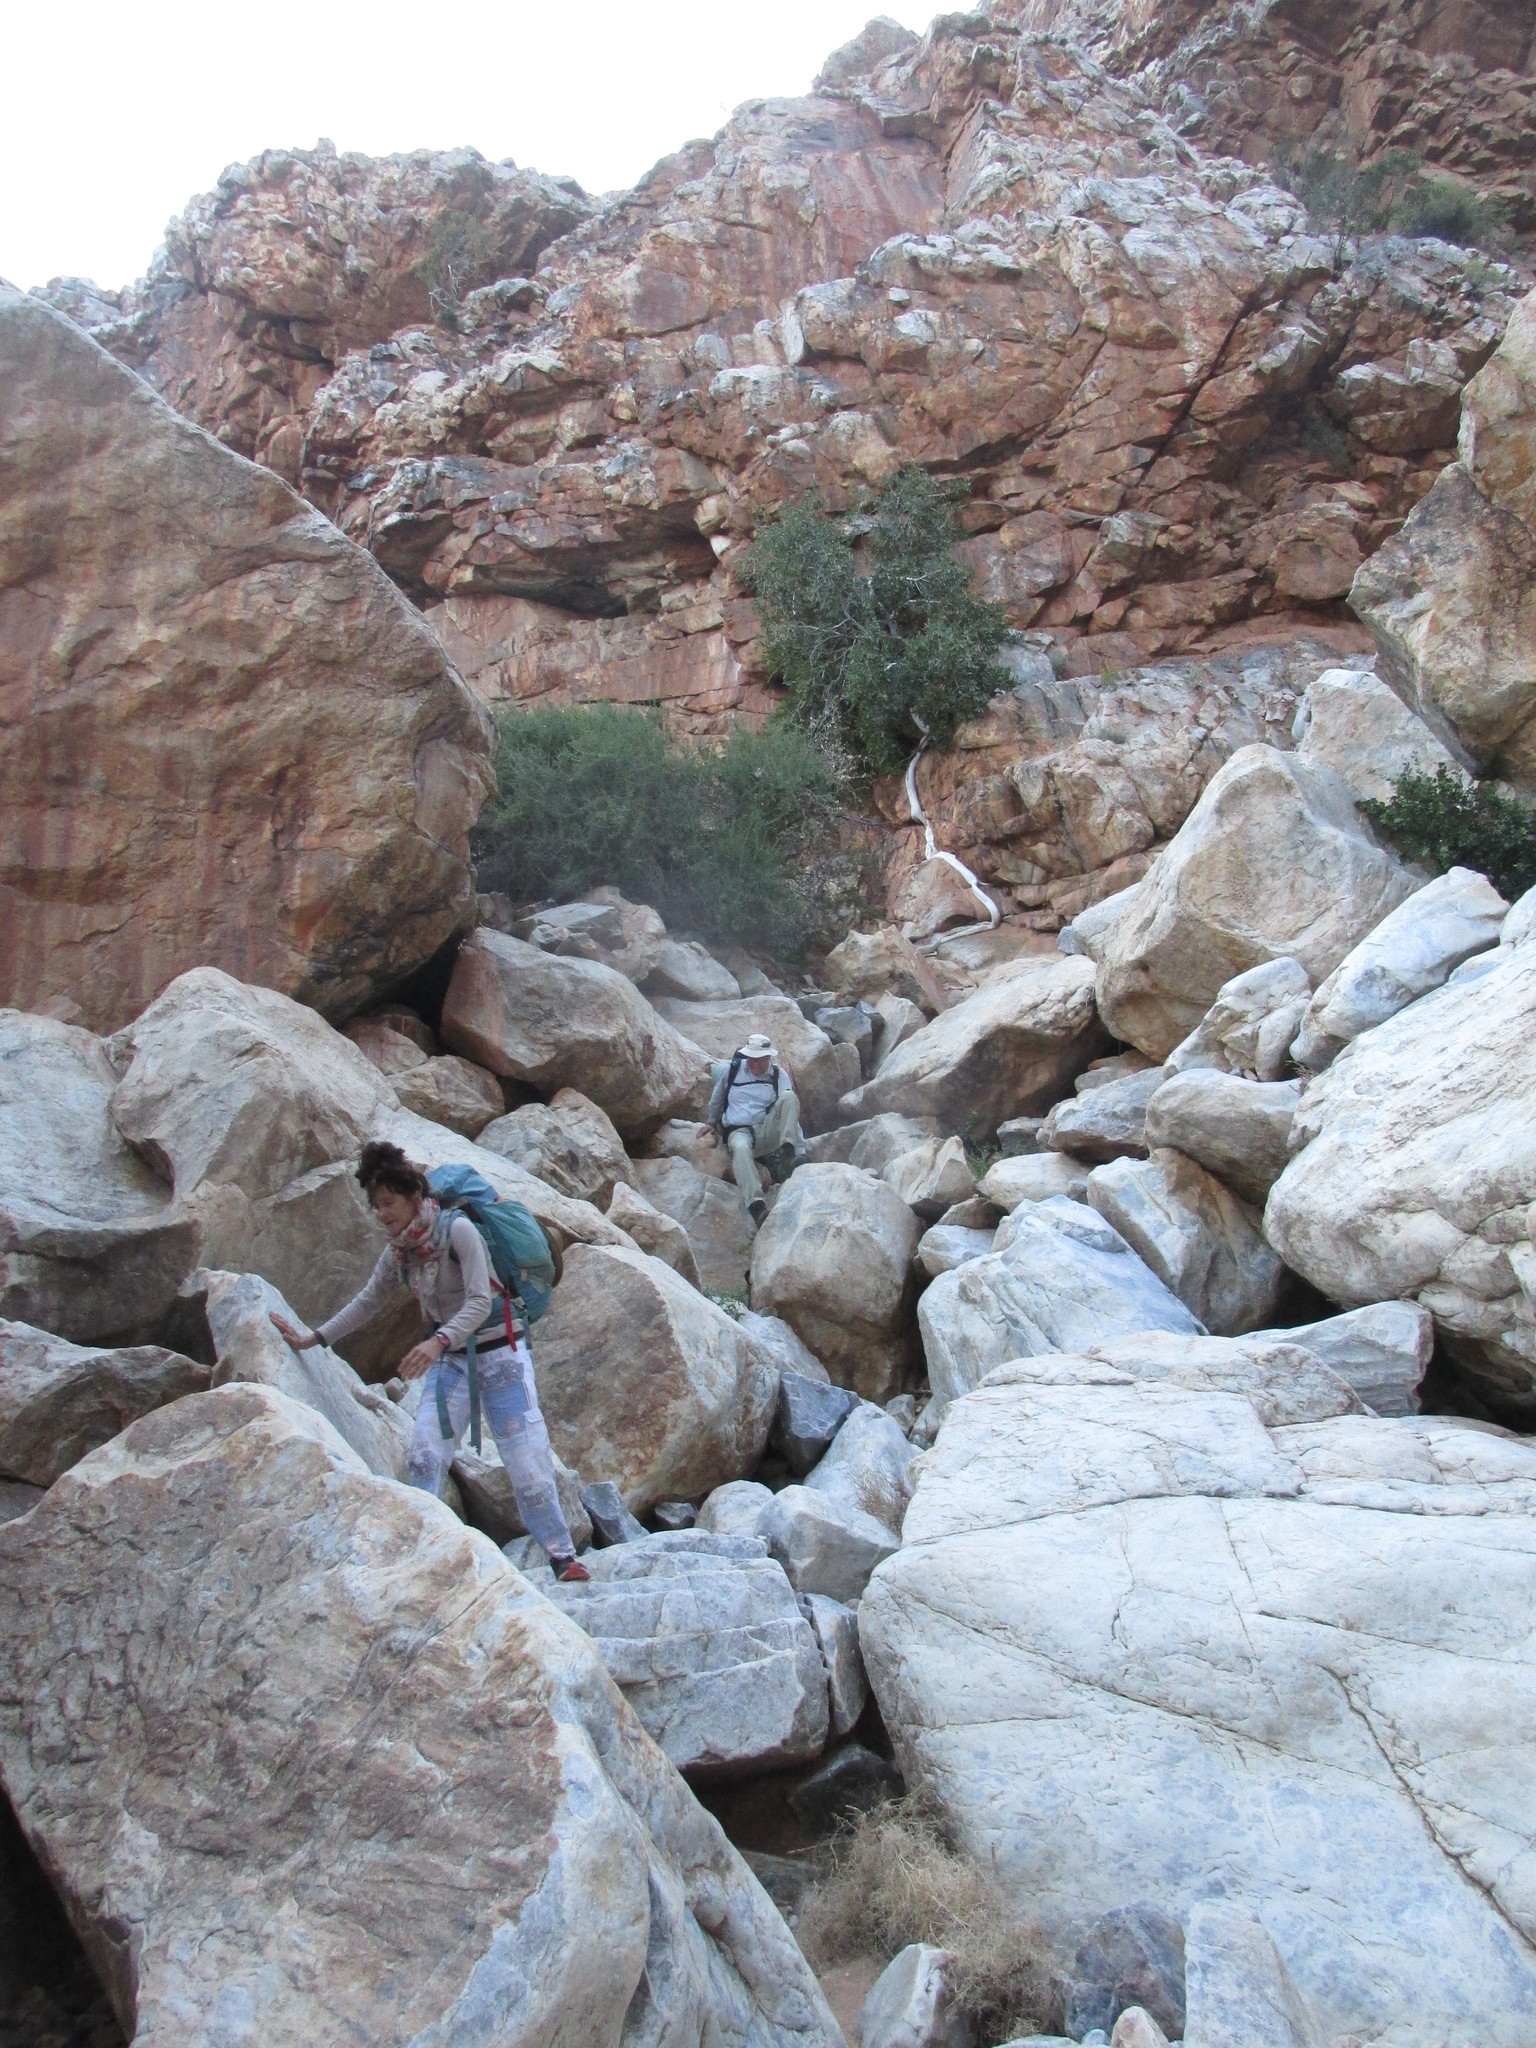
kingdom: Plantae
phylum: Tracheophyta
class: Magnoliopsida
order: Rosales
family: Moraceae
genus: Ficus
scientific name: Ficus ilicina
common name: Laurel rock fig
